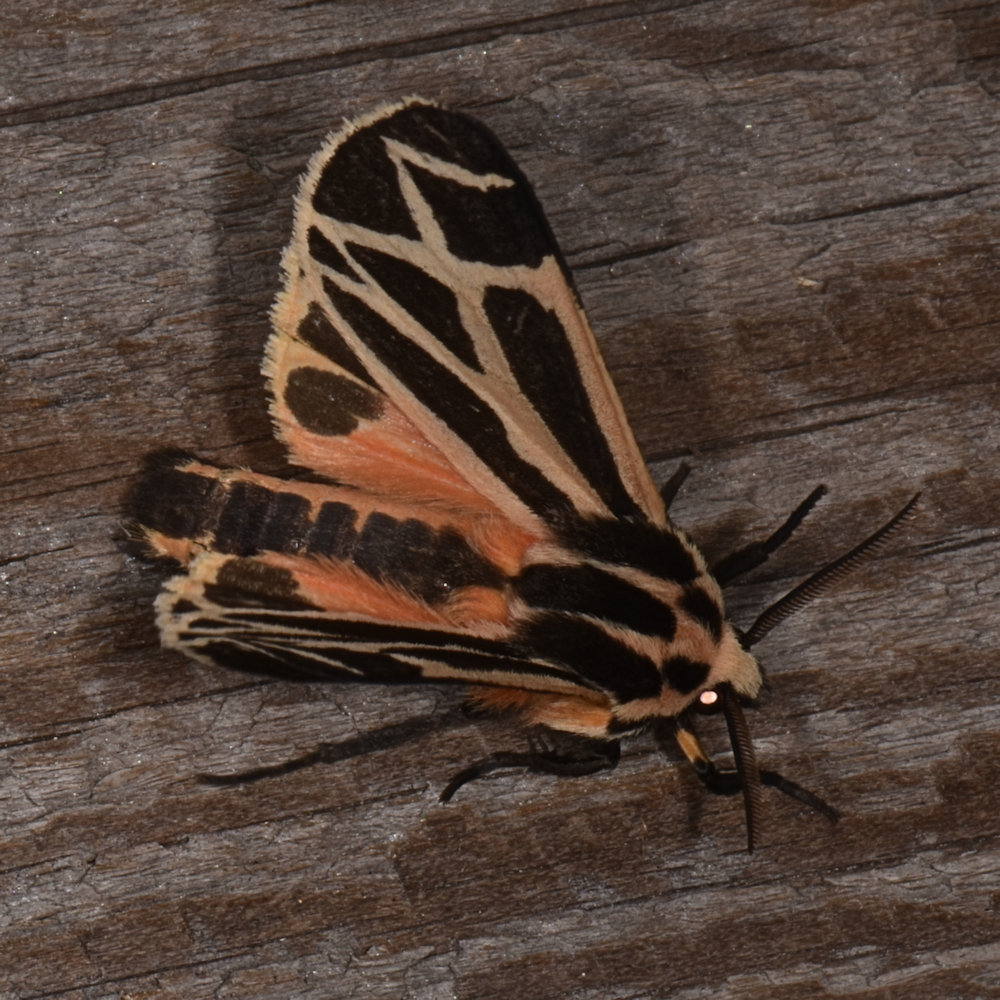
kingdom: Animalia
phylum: Arthropoda
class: Insecta
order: Lepidoptera
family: Erebidae
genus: Apantesis
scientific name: Apantesis phalerata
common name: Harnessed tiger moth
